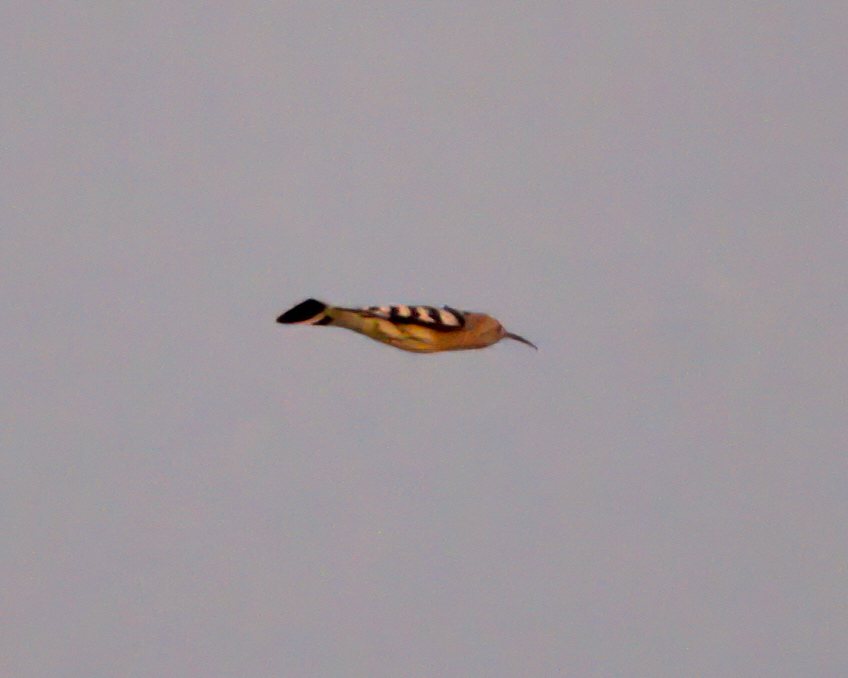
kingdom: Animalia
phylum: Chordata
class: Aves
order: Bucerotiformes
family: Upupidae
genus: Upupa
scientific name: Upupa epops
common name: Eurasian hoopoe
